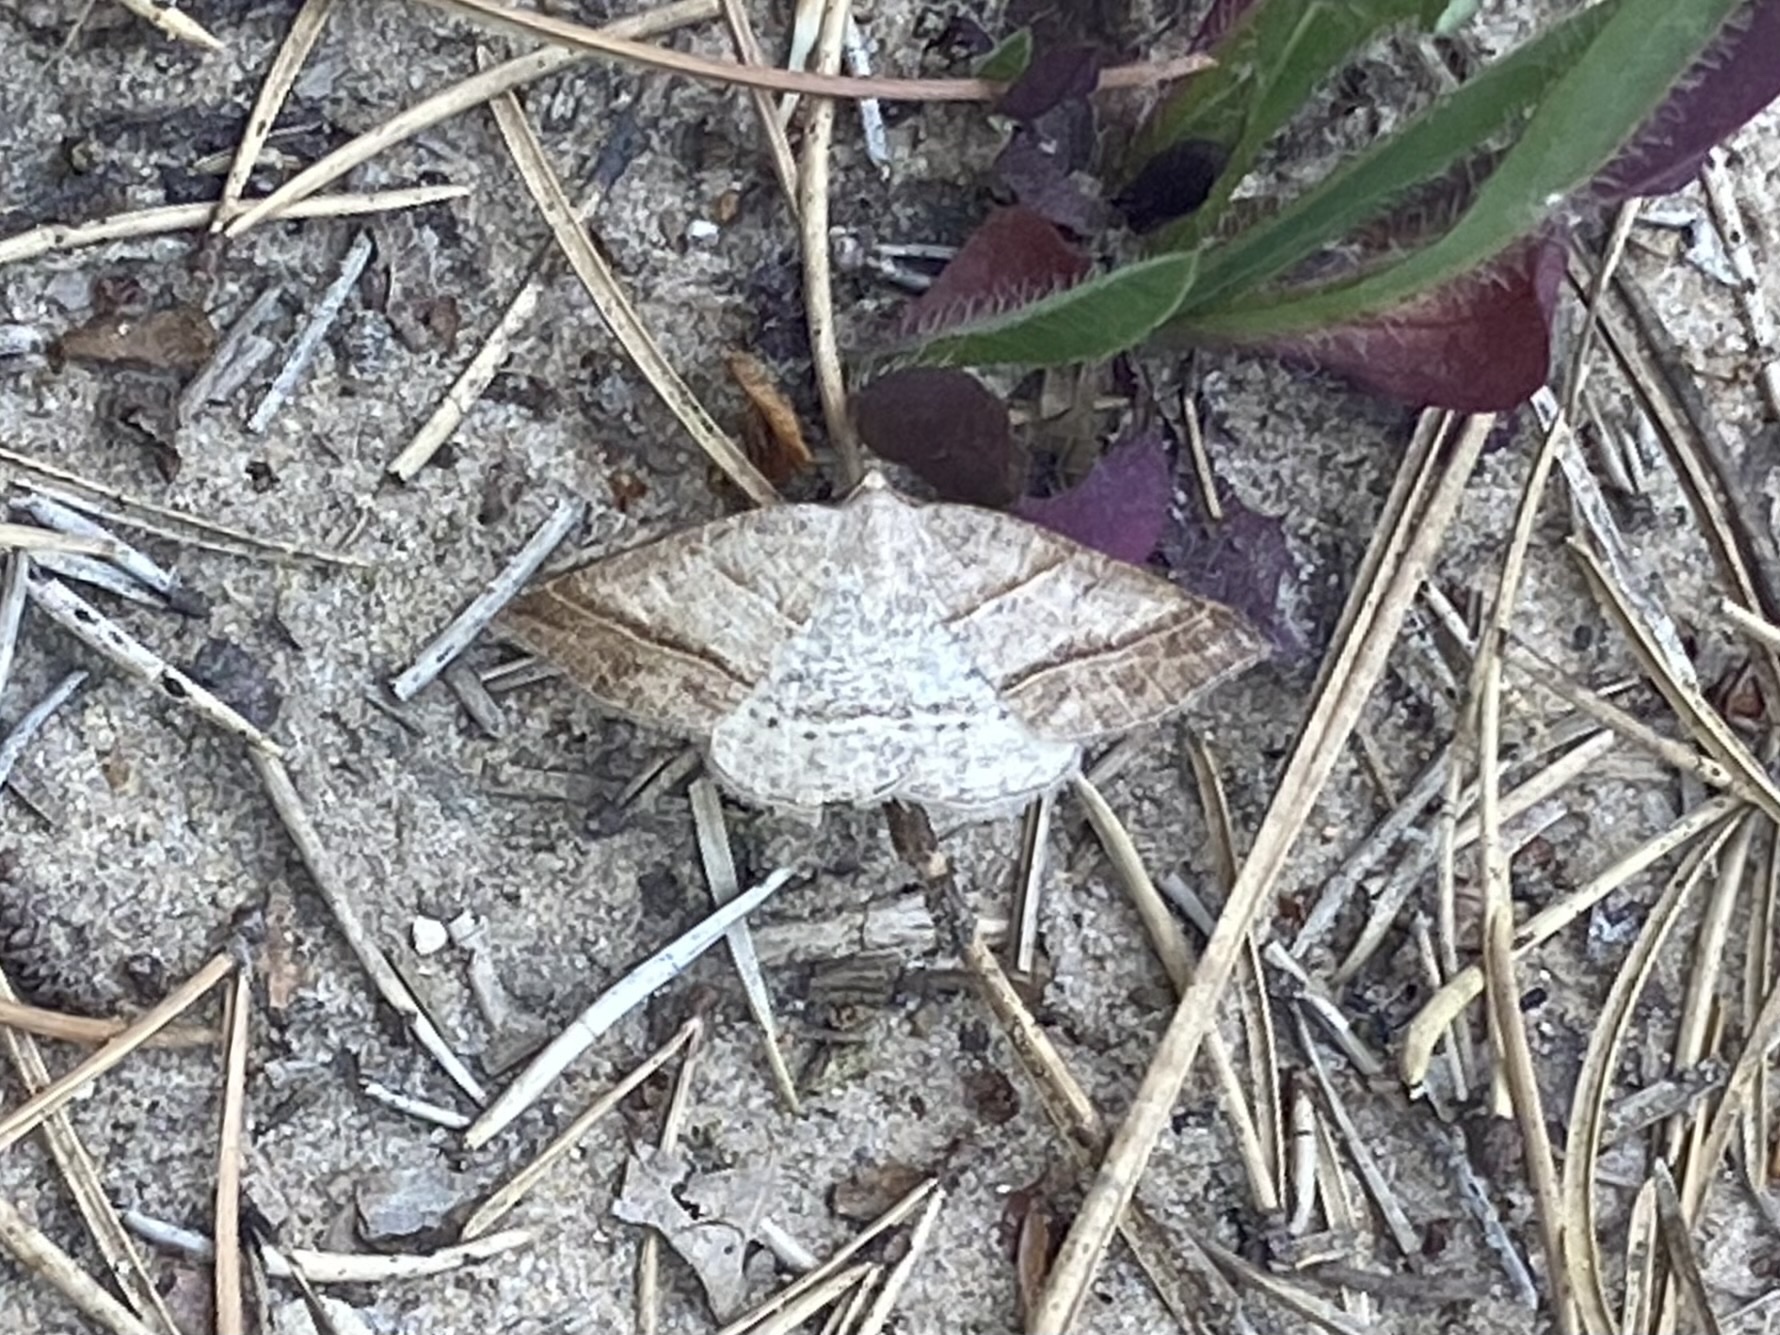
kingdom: Animalia
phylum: Arthropoda
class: Insecta
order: Lepidoptera
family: Pterophoridae
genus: Pterophorus
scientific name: Pterophorus Petrophora subaequaria
